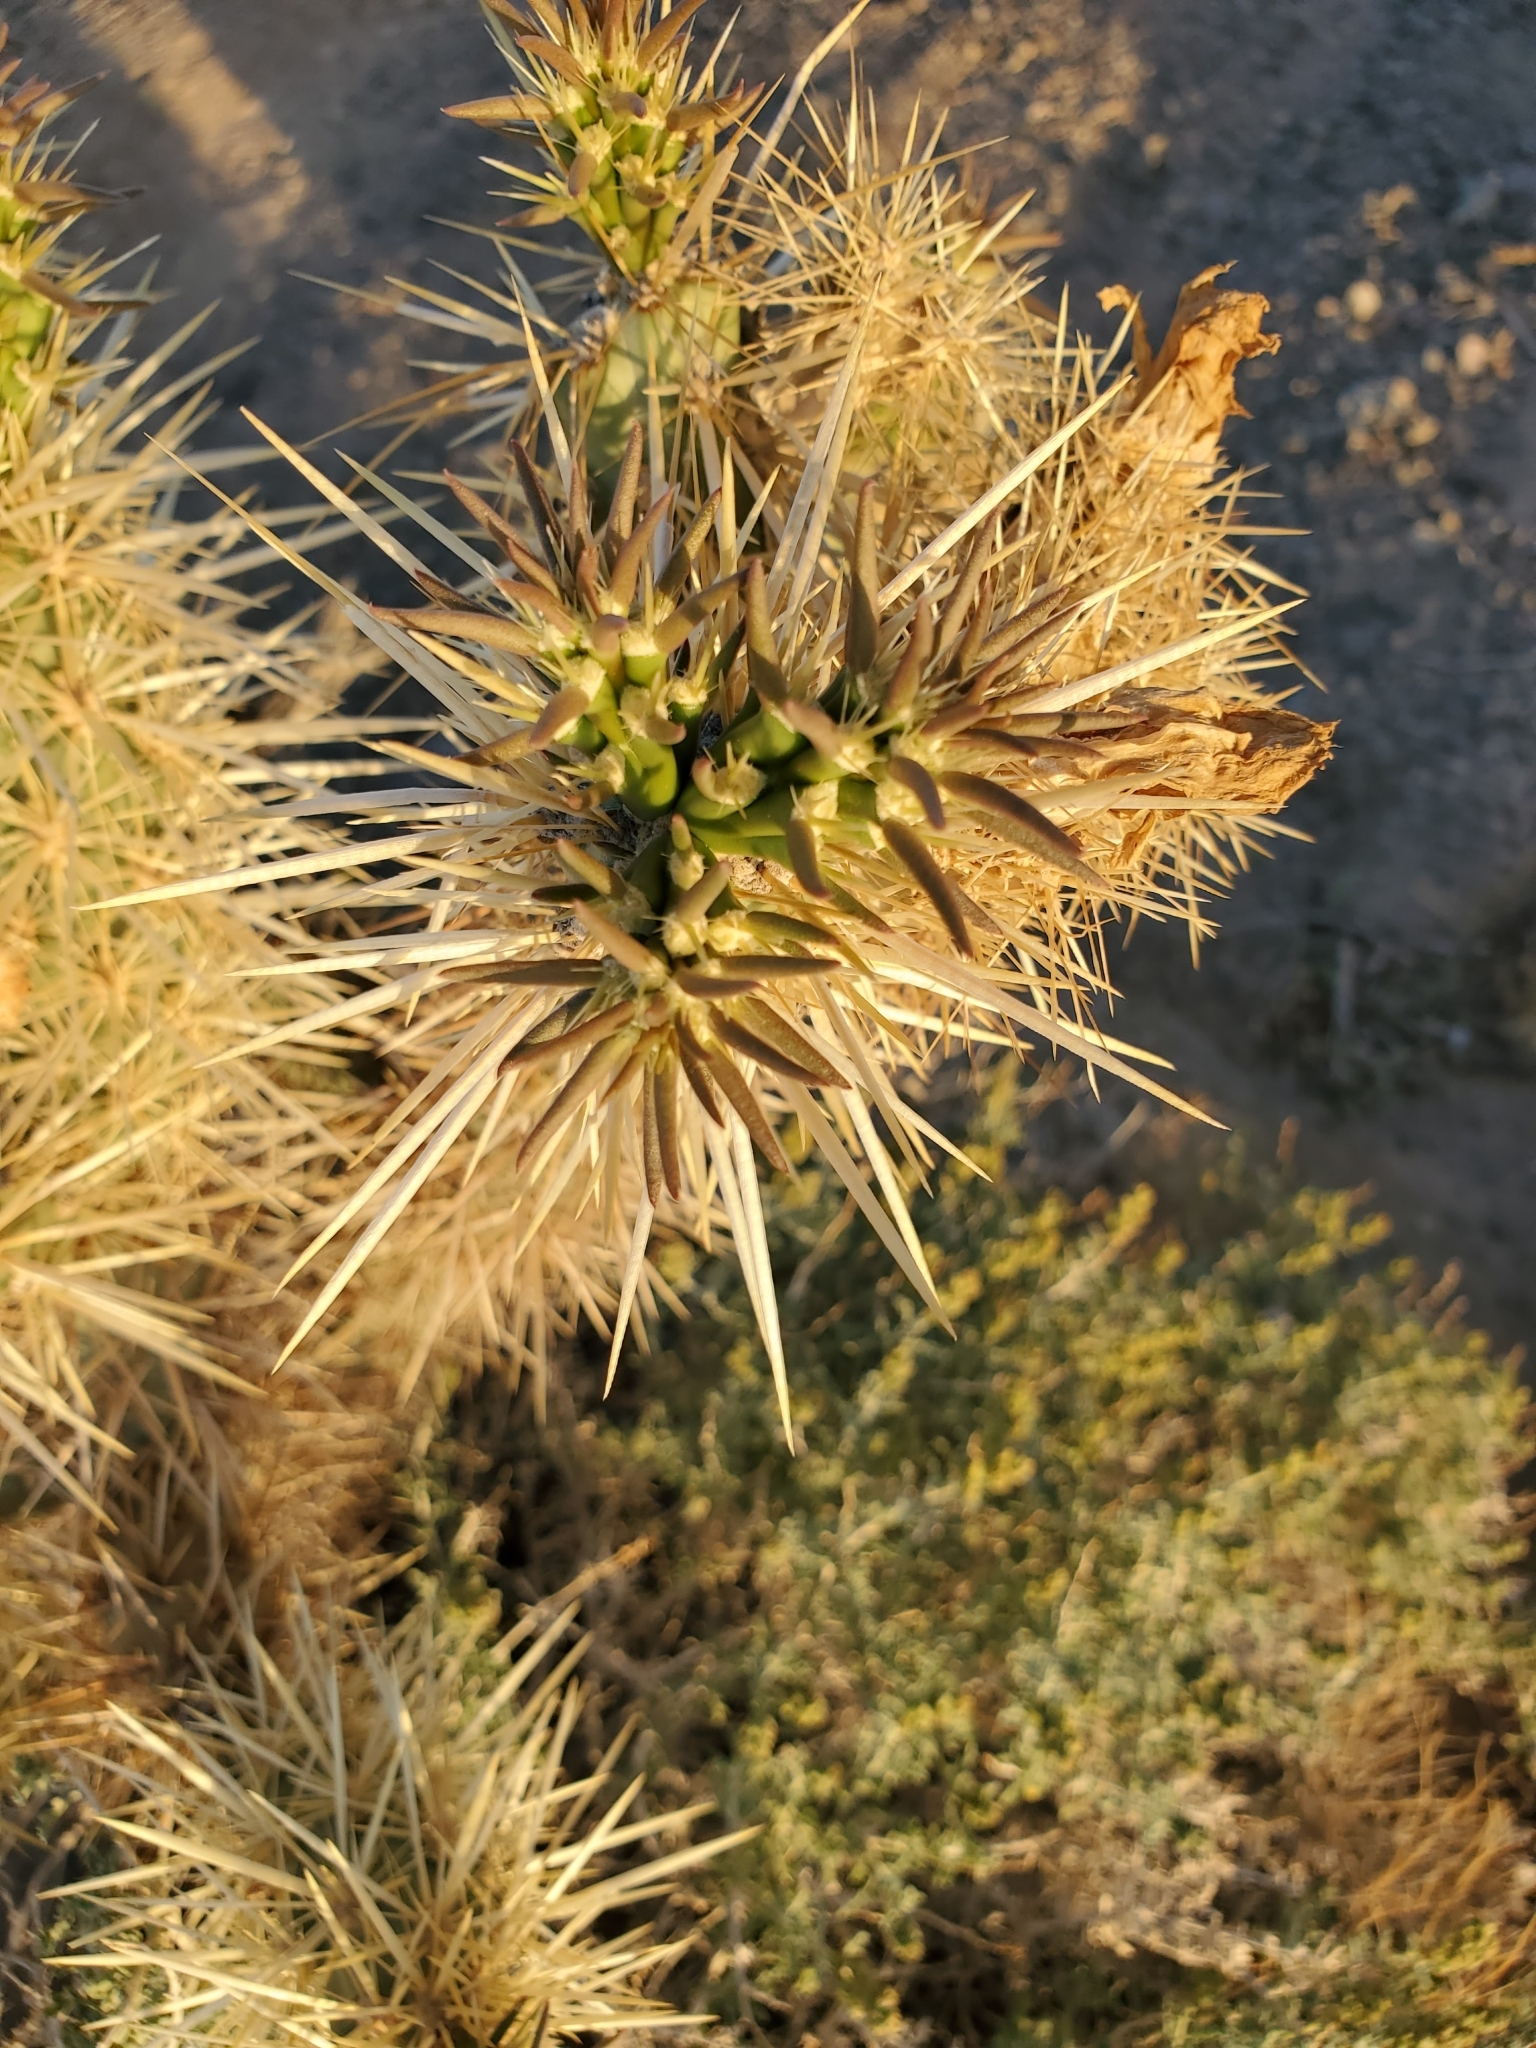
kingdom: Plantae
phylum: Tracheophyta
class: Magnoliopsida
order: Caryophyllales
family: Cactaceae
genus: Cylindropuntia
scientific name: Cylindropuntia echinocarpa
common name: Ground cholla
